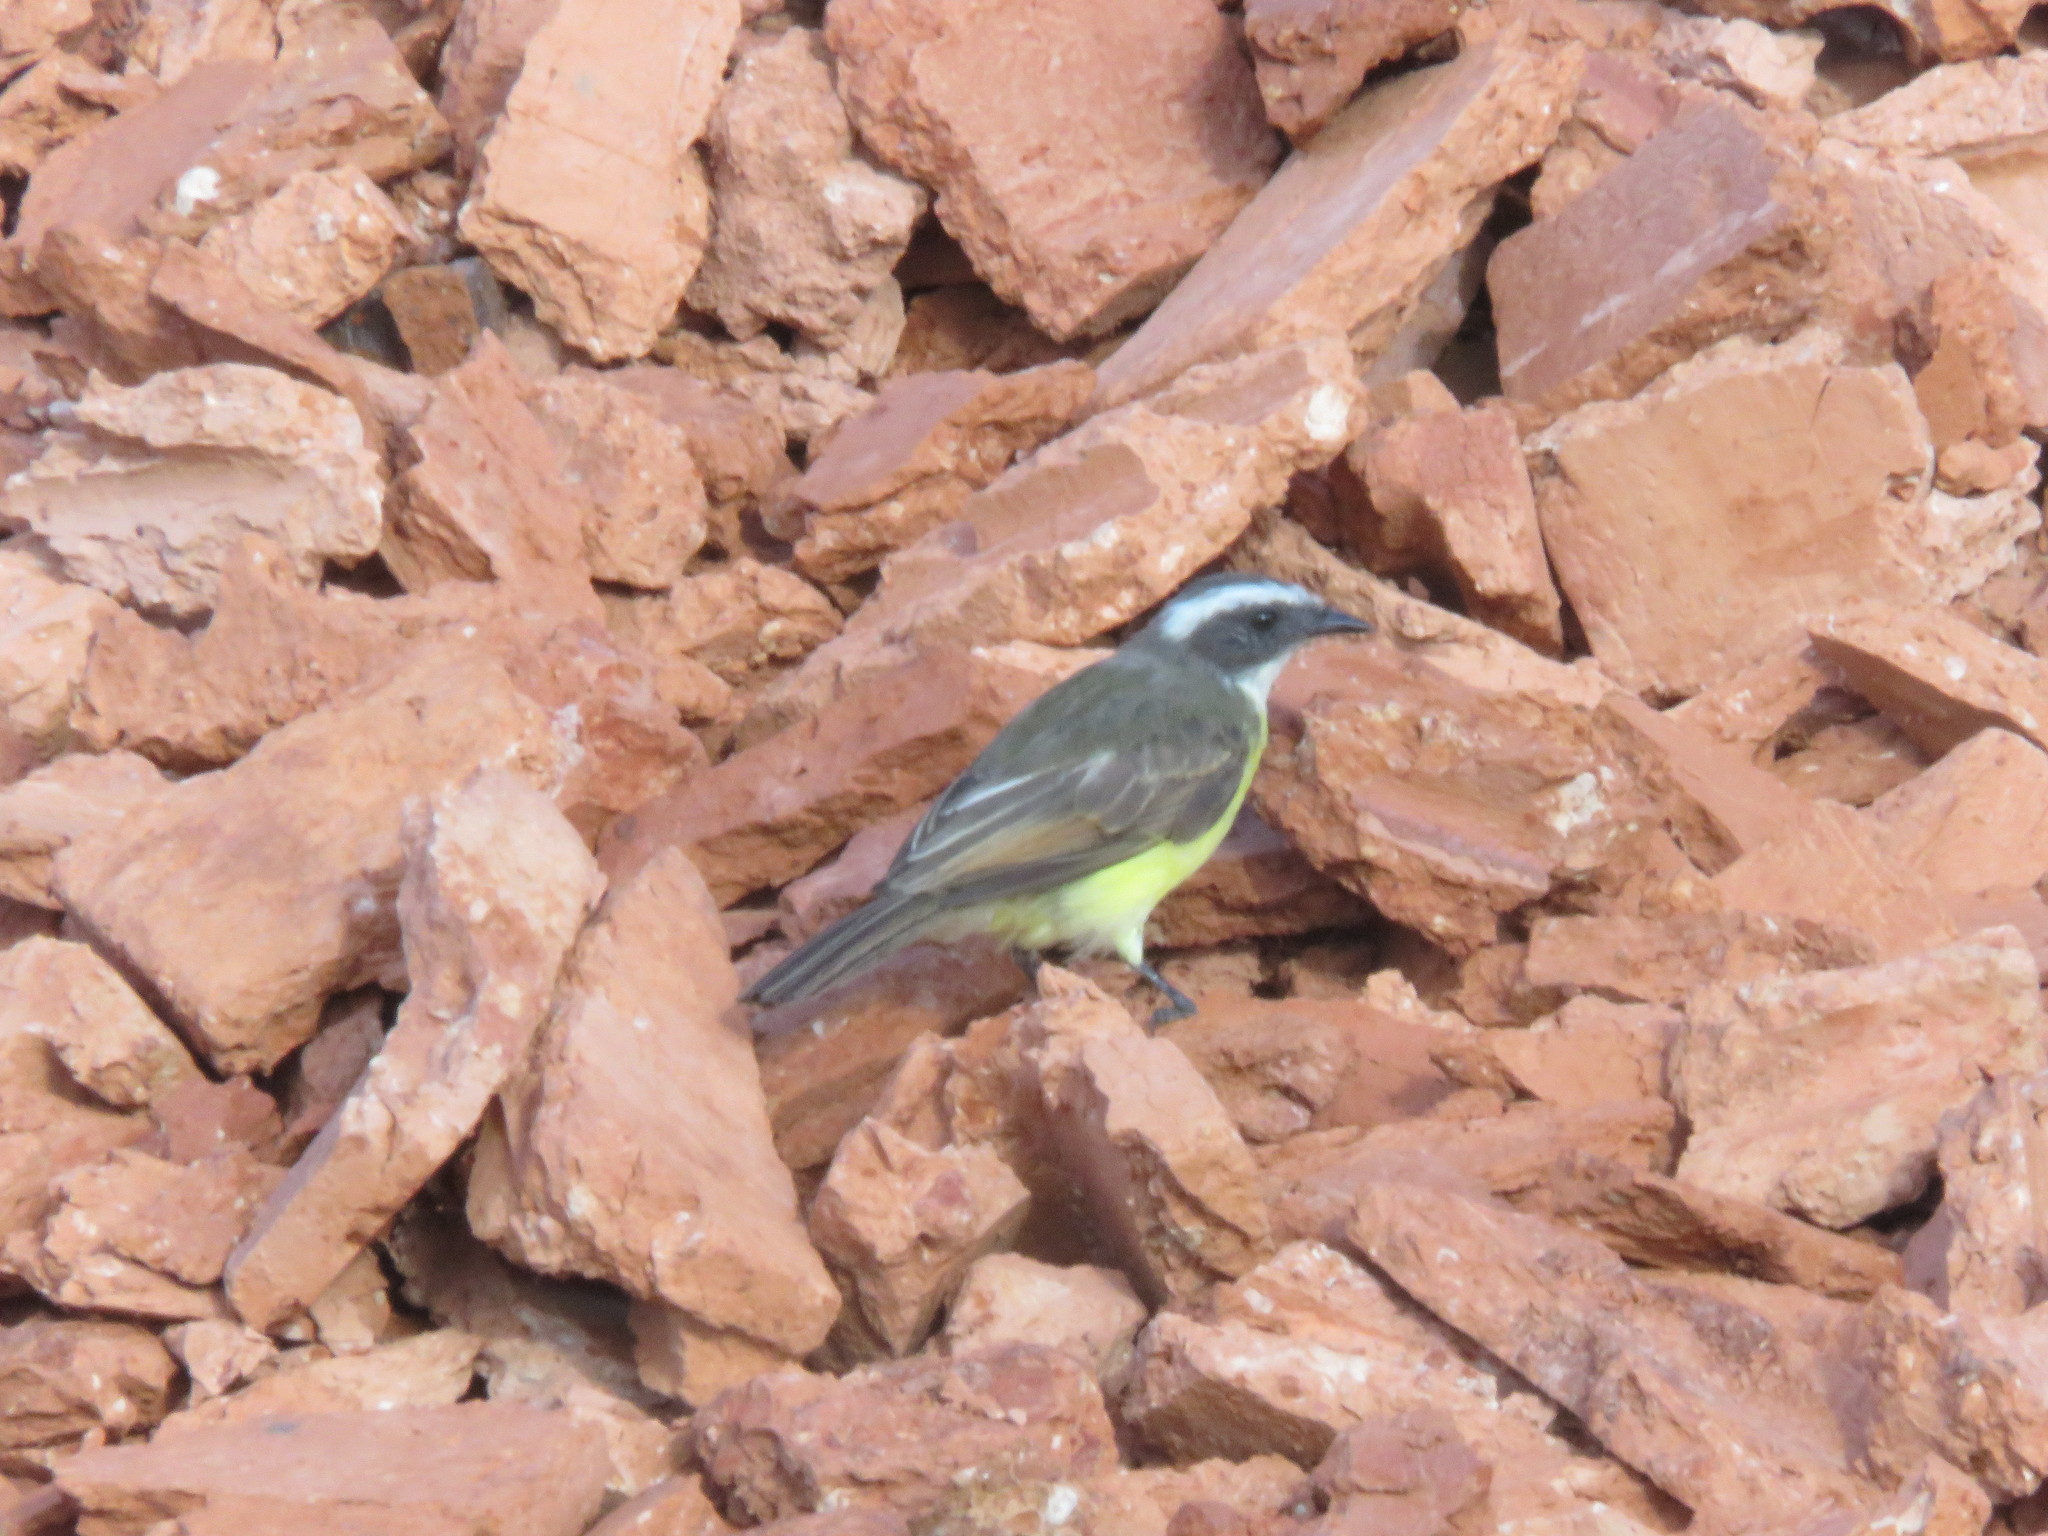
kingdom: Animalia
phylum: Chordata
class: Aves
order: Passeriformes
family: Tyrannidae
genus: Myiozetetes
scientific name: Myiozetetes cayanensis
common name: Rusty-margined flycatcher
